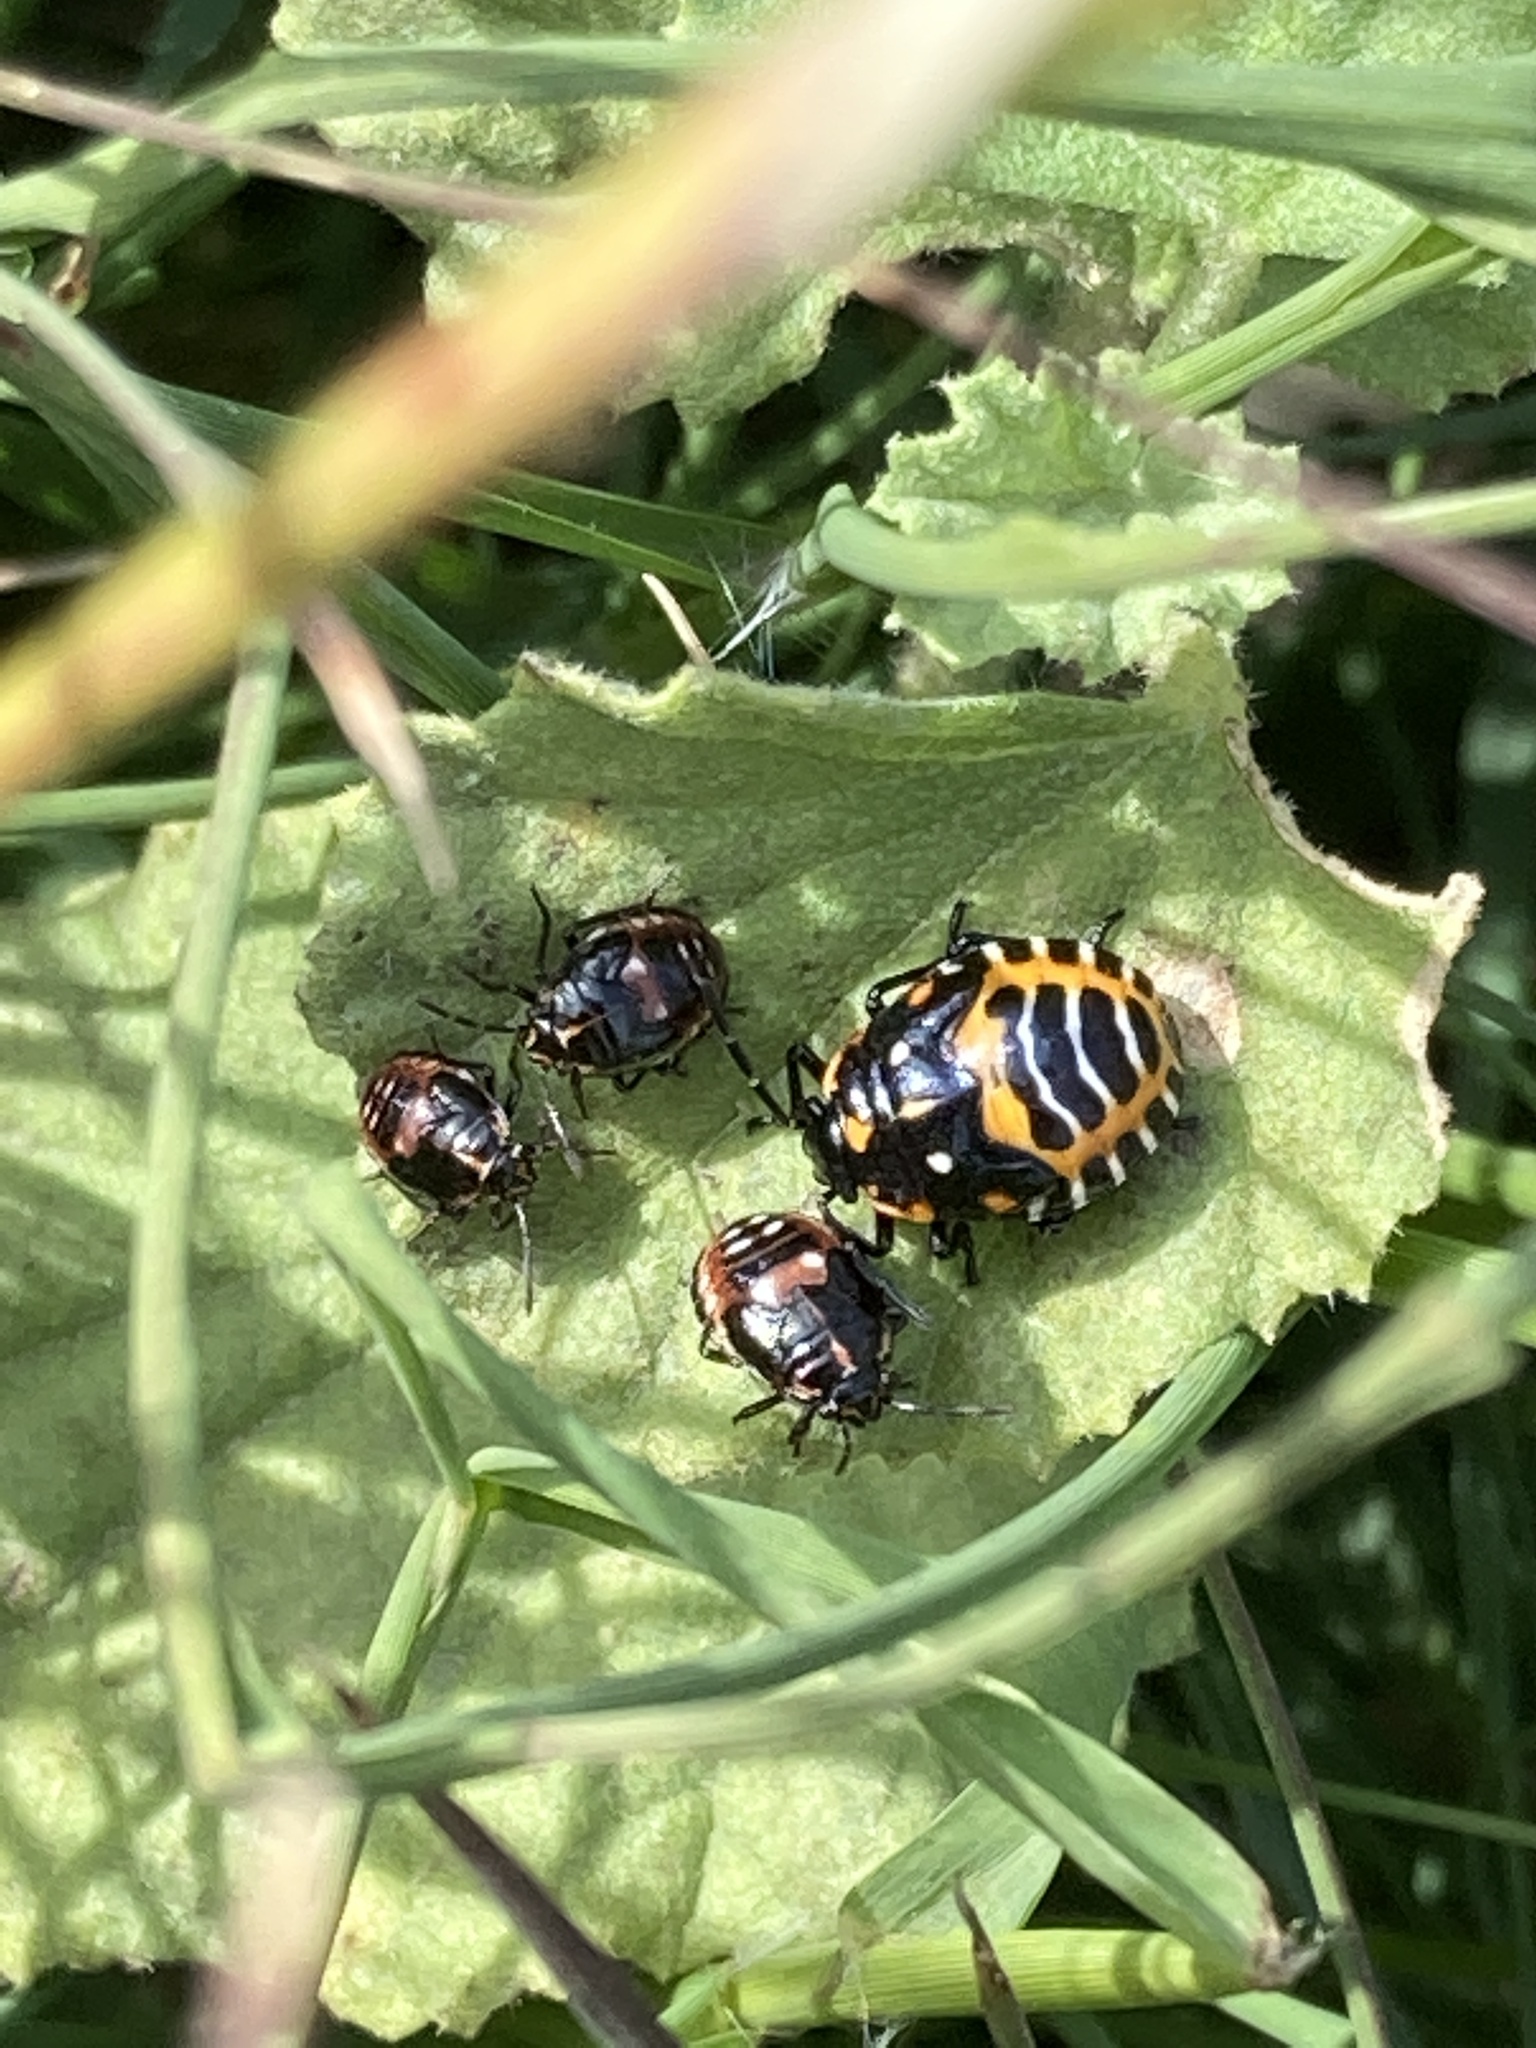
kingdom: Animalia
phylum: Arthropoda
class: Insecta
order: Hemiptera
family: Pentatomidae
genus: Murgantia
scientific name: Murgantia histrionica
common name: Harlequin bug
